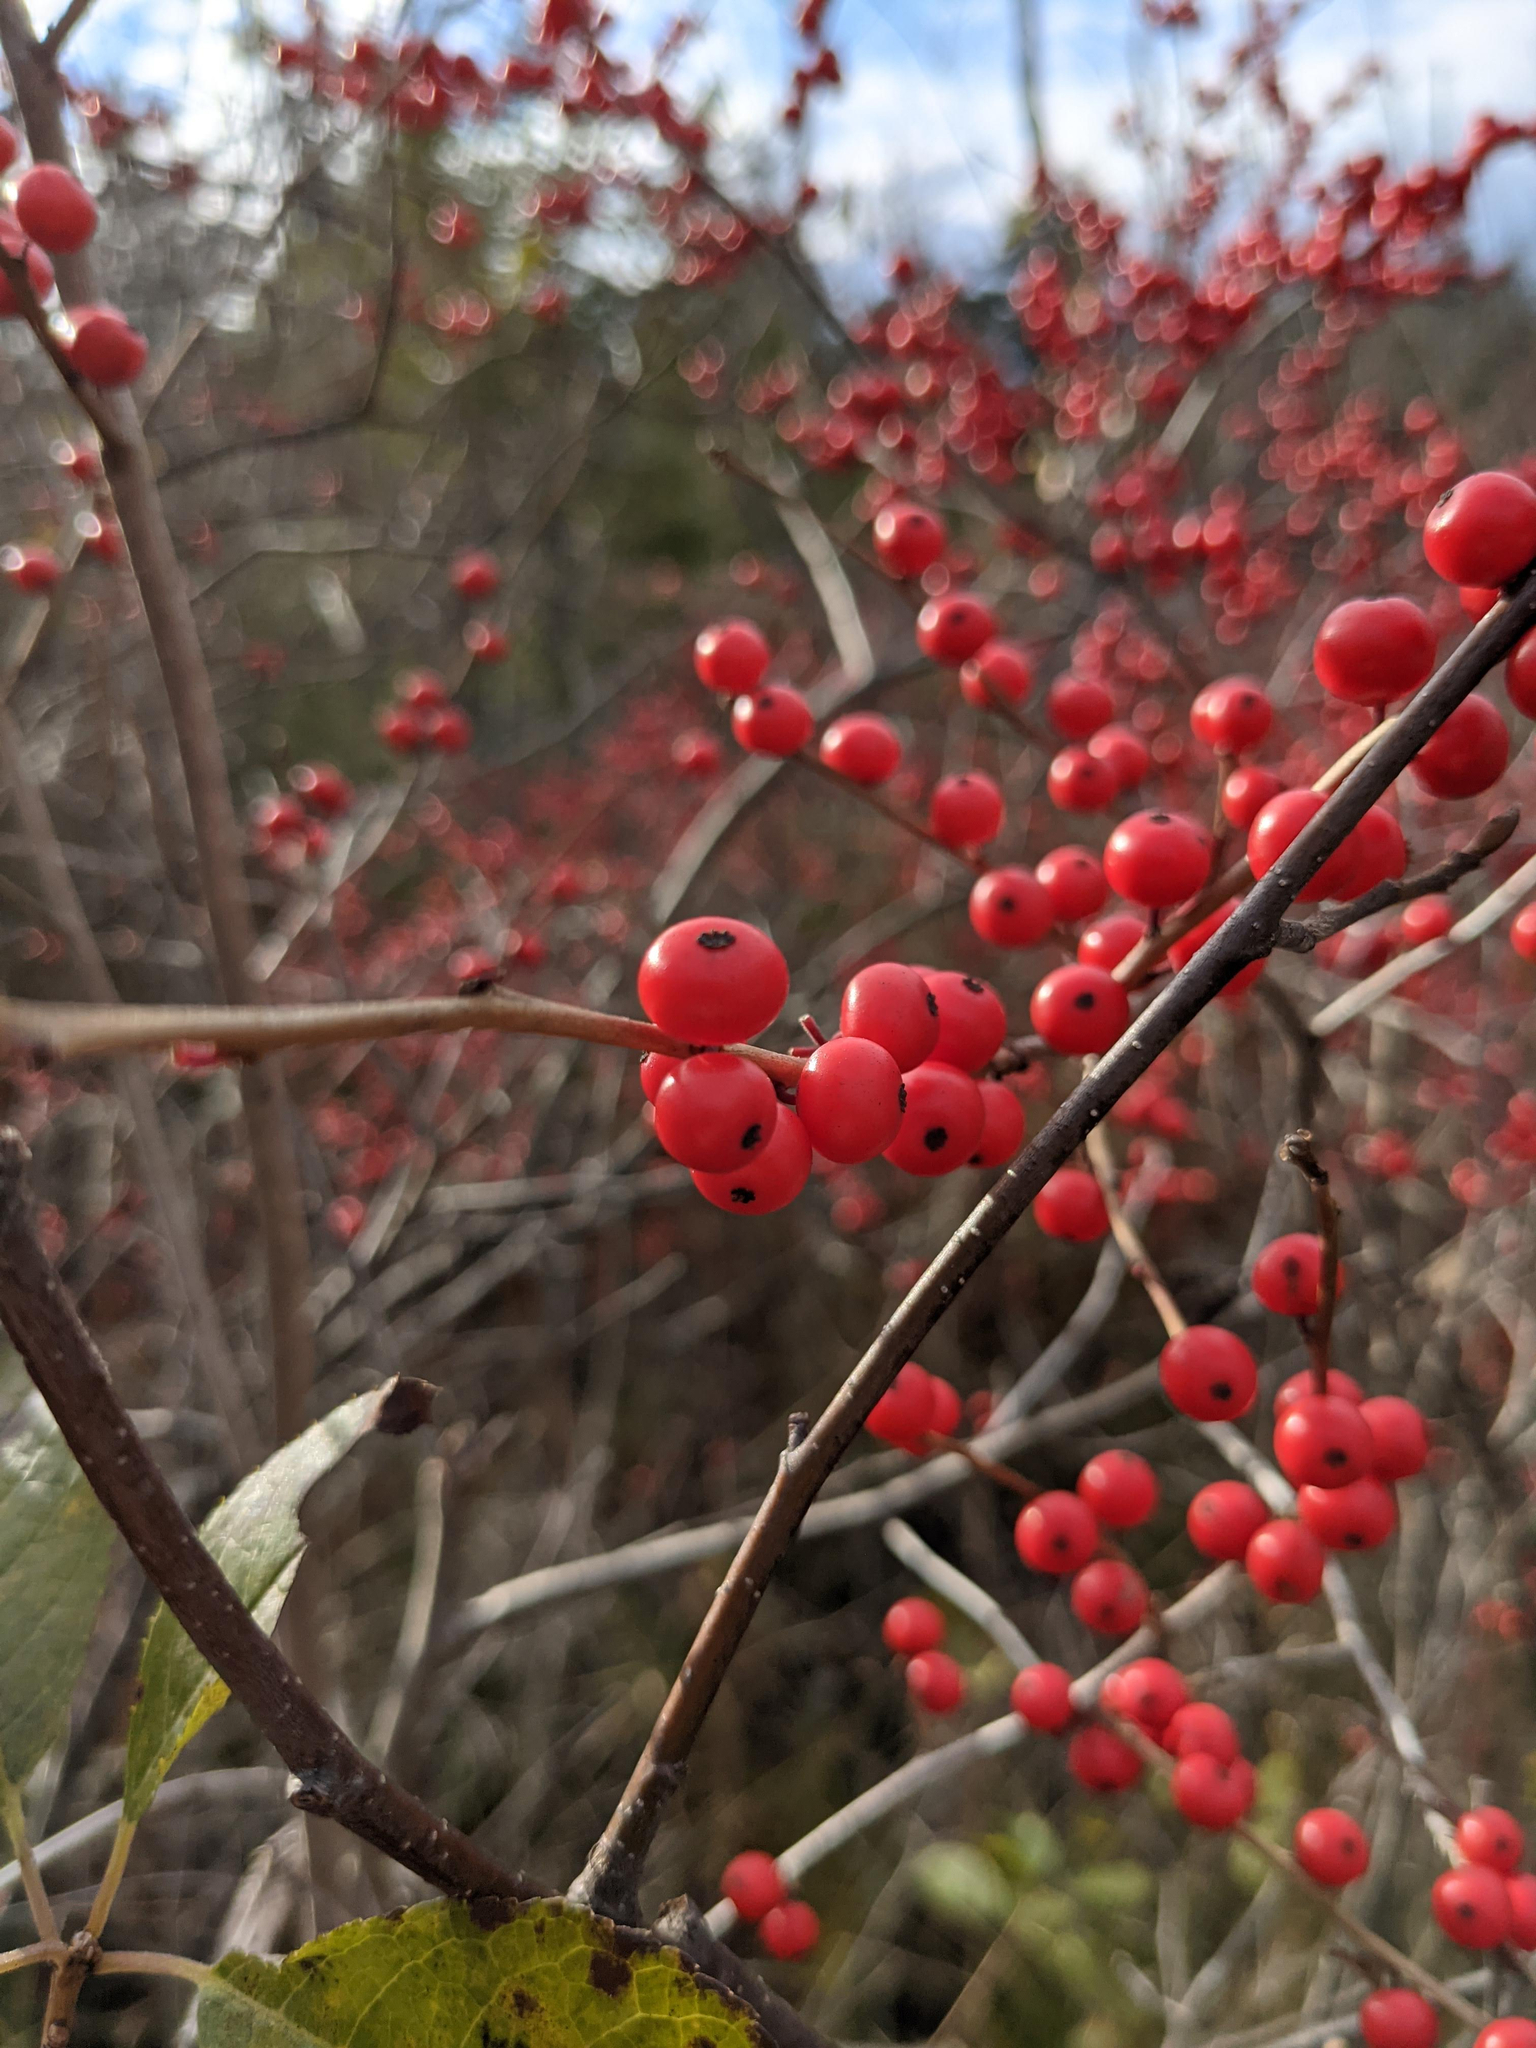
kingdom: Plantae
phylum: Tracheophyta
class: Magnoliopsida
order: Aquifoliales
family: Aquifoliaceae
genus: Ilex
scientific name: Ilex verticillata
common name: Virginia winterberry
